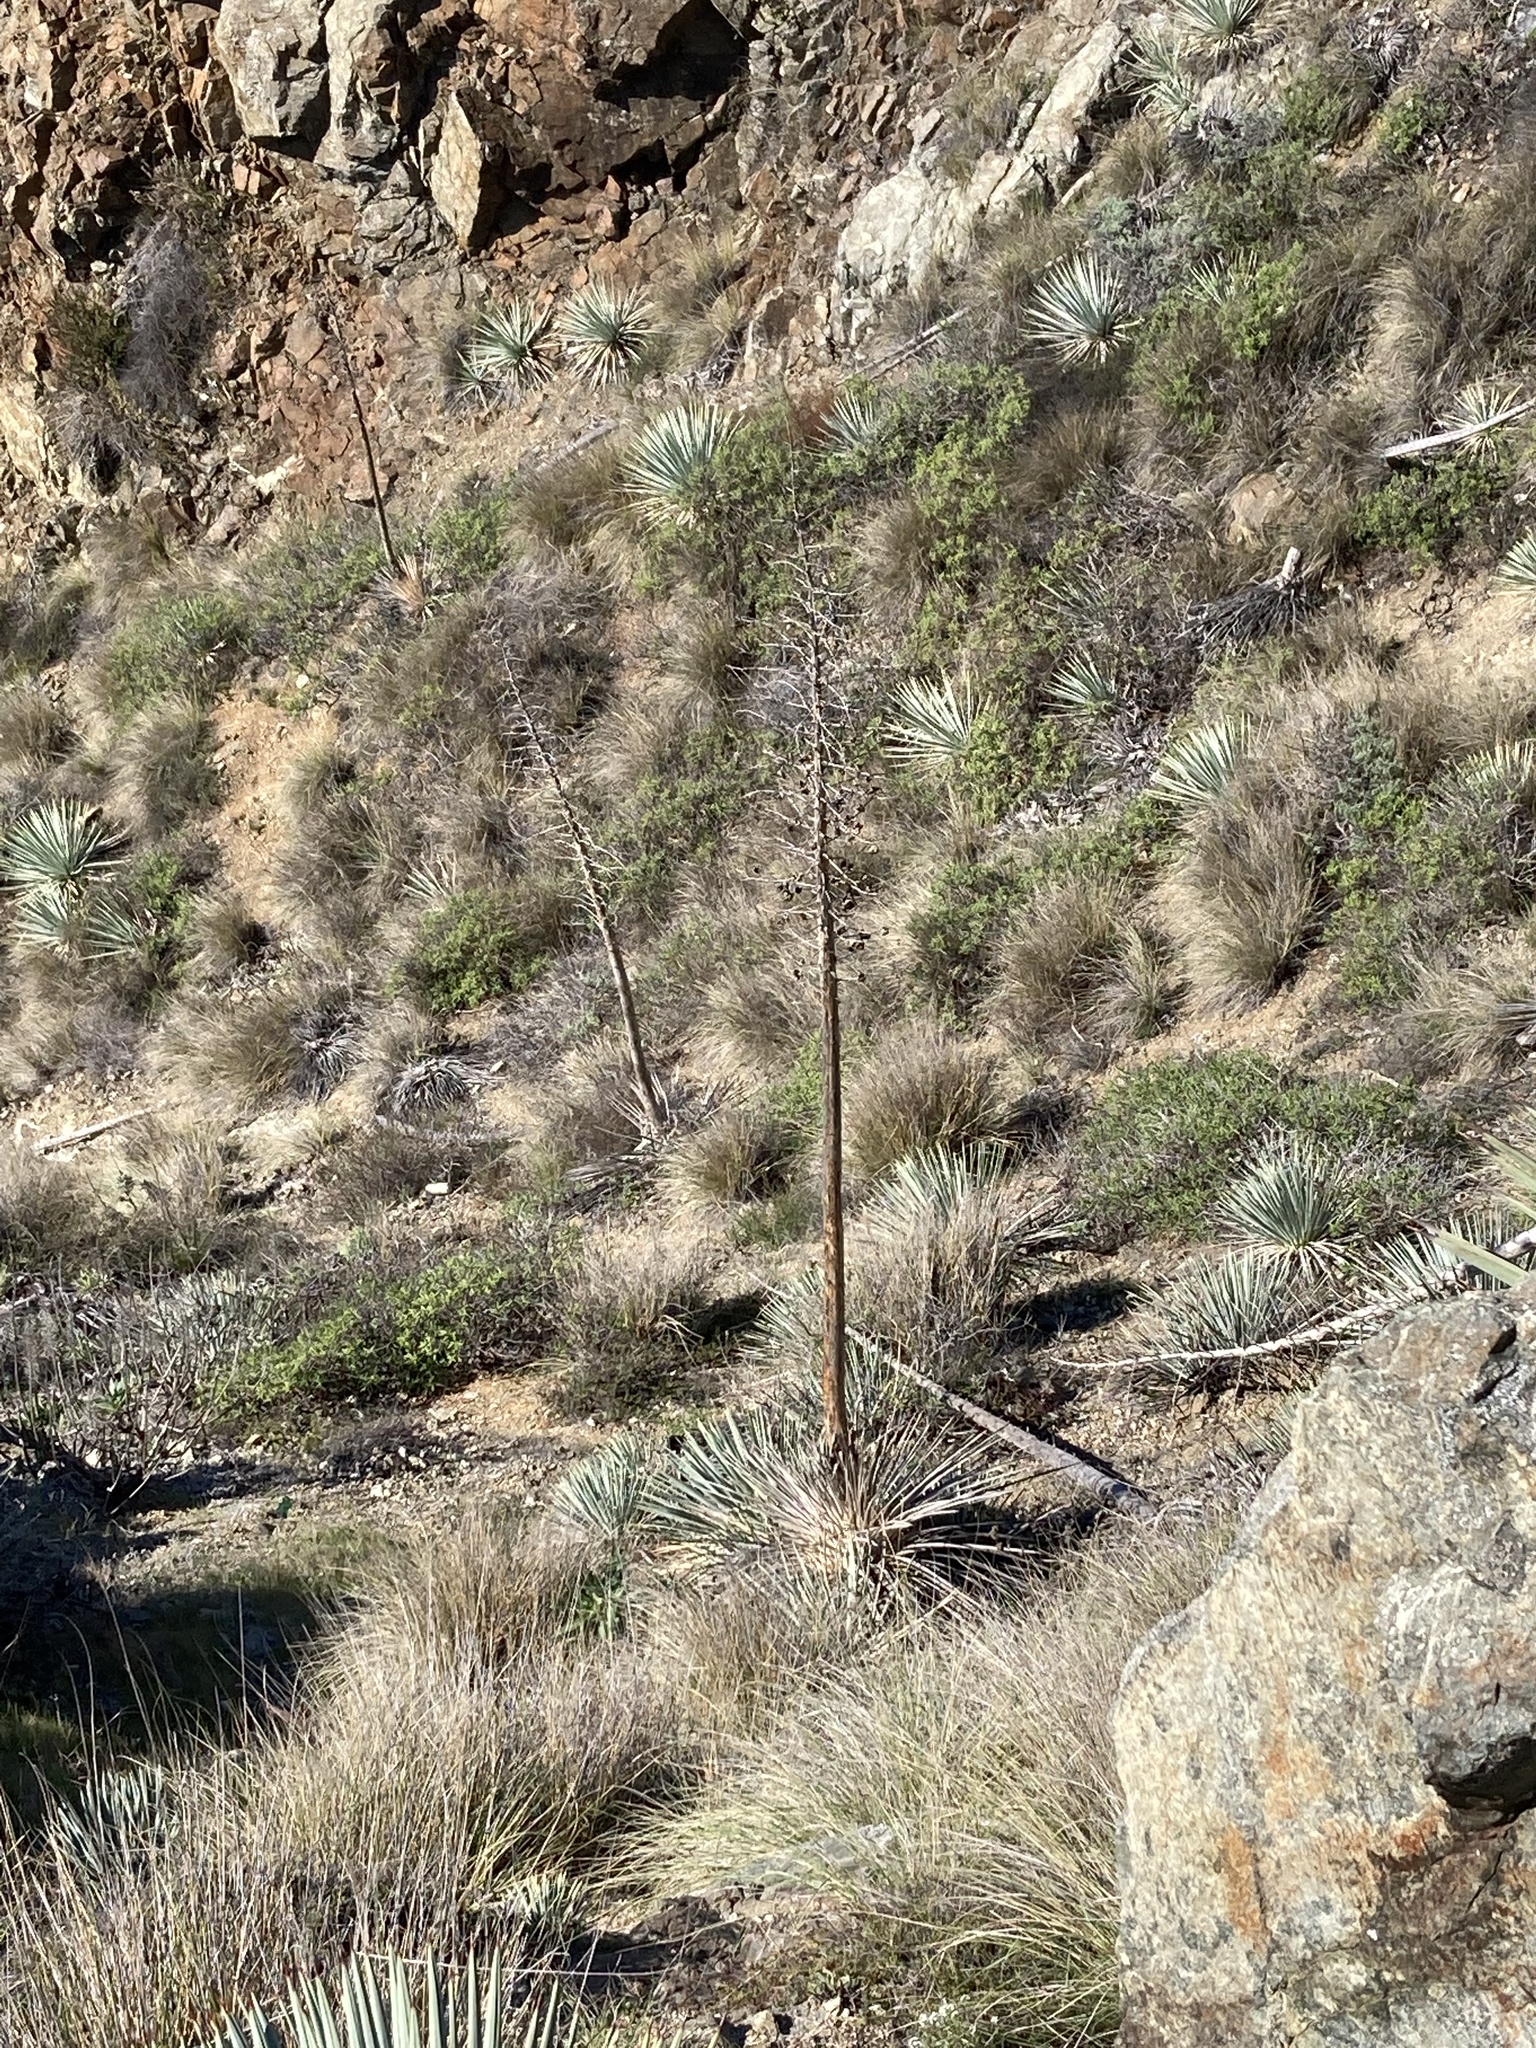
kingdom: Plantae
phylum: Tracheophyta
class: Liliopsida
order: Asparagales
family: Asparagaceae
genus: Hesperoyucca
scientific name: Hesperoyucca whipplei
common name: Our lord's-candle
